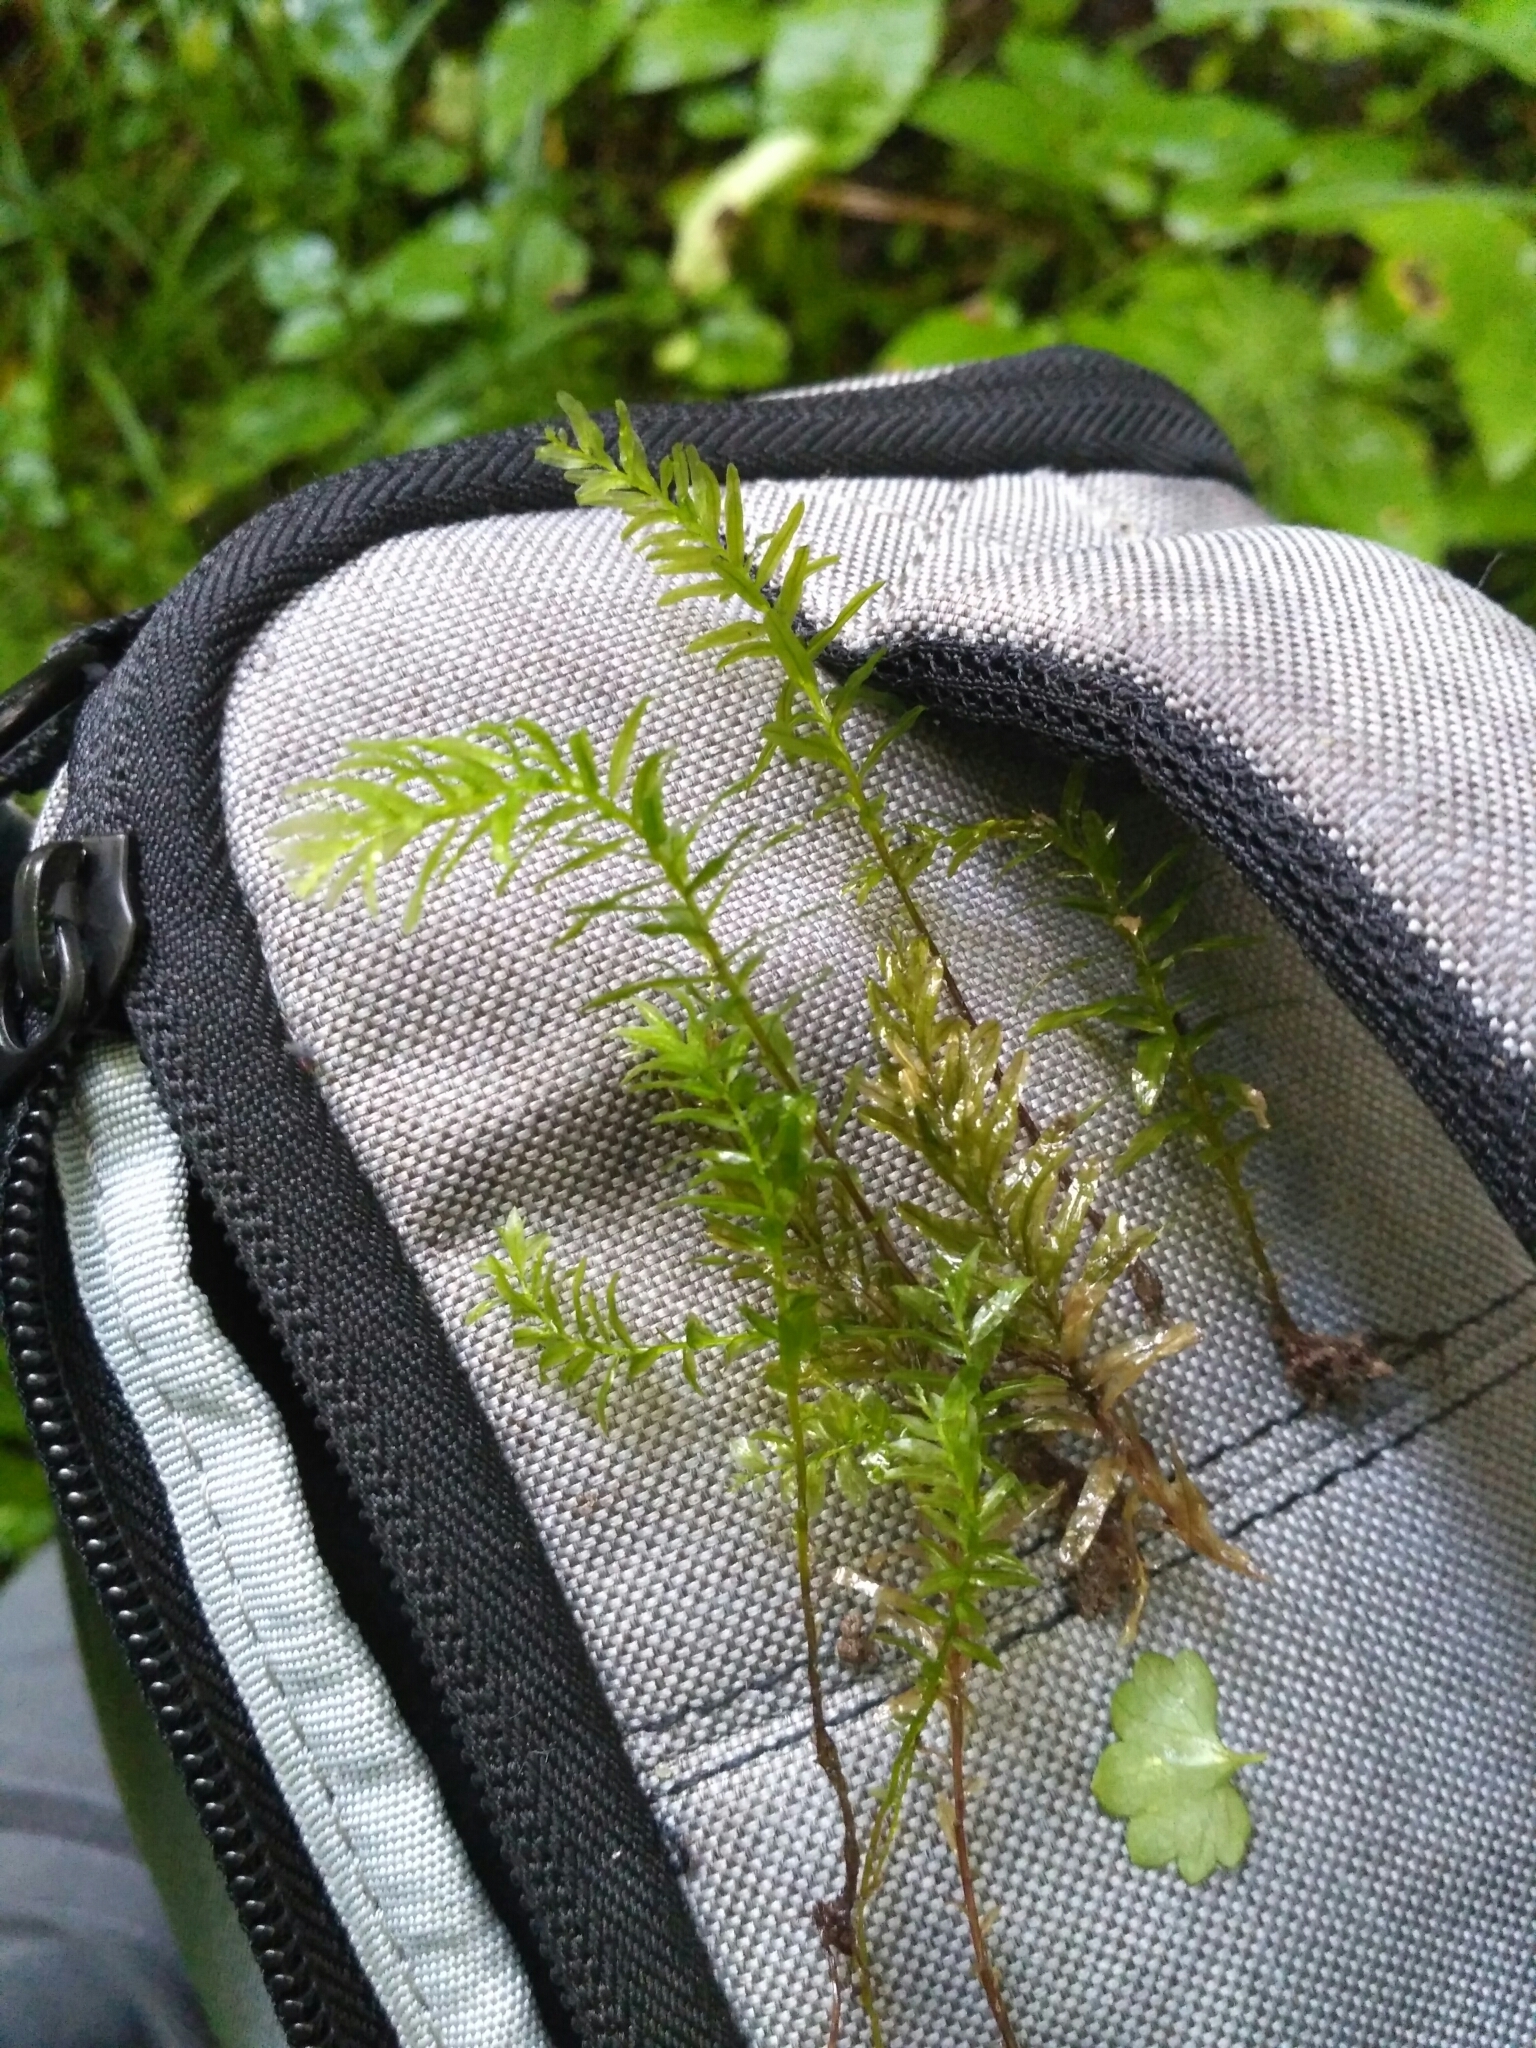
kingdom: Plantae
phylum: Bryophyta
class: Bryopsida
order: Bryales
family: Mniaceae
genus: Plagiomnium
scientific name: Plagiomnium undulatum
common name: Hart's-tongue thyme-moss
